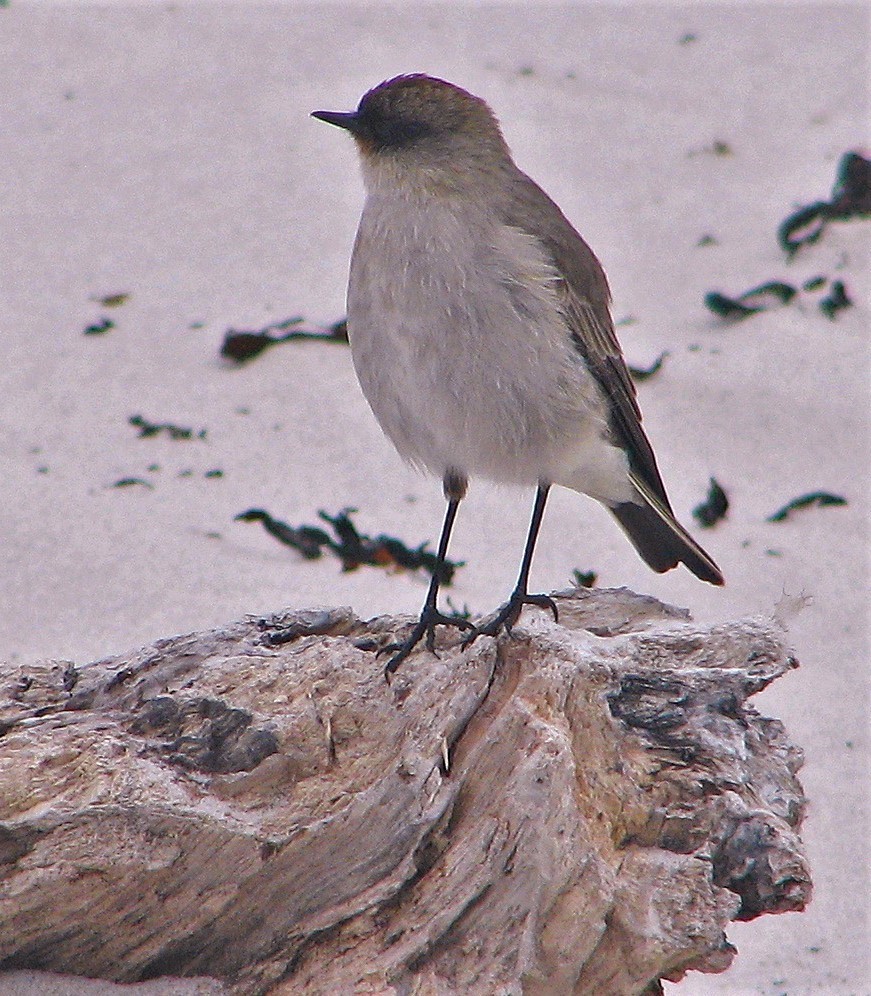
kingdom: Animalia
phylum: Chordata
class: Aves
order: Passeriformes
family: Tyrannidae
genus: Muscisaxicola
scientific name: Muscisaxicola maclovianus
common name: Dark-faced ground tyrant
